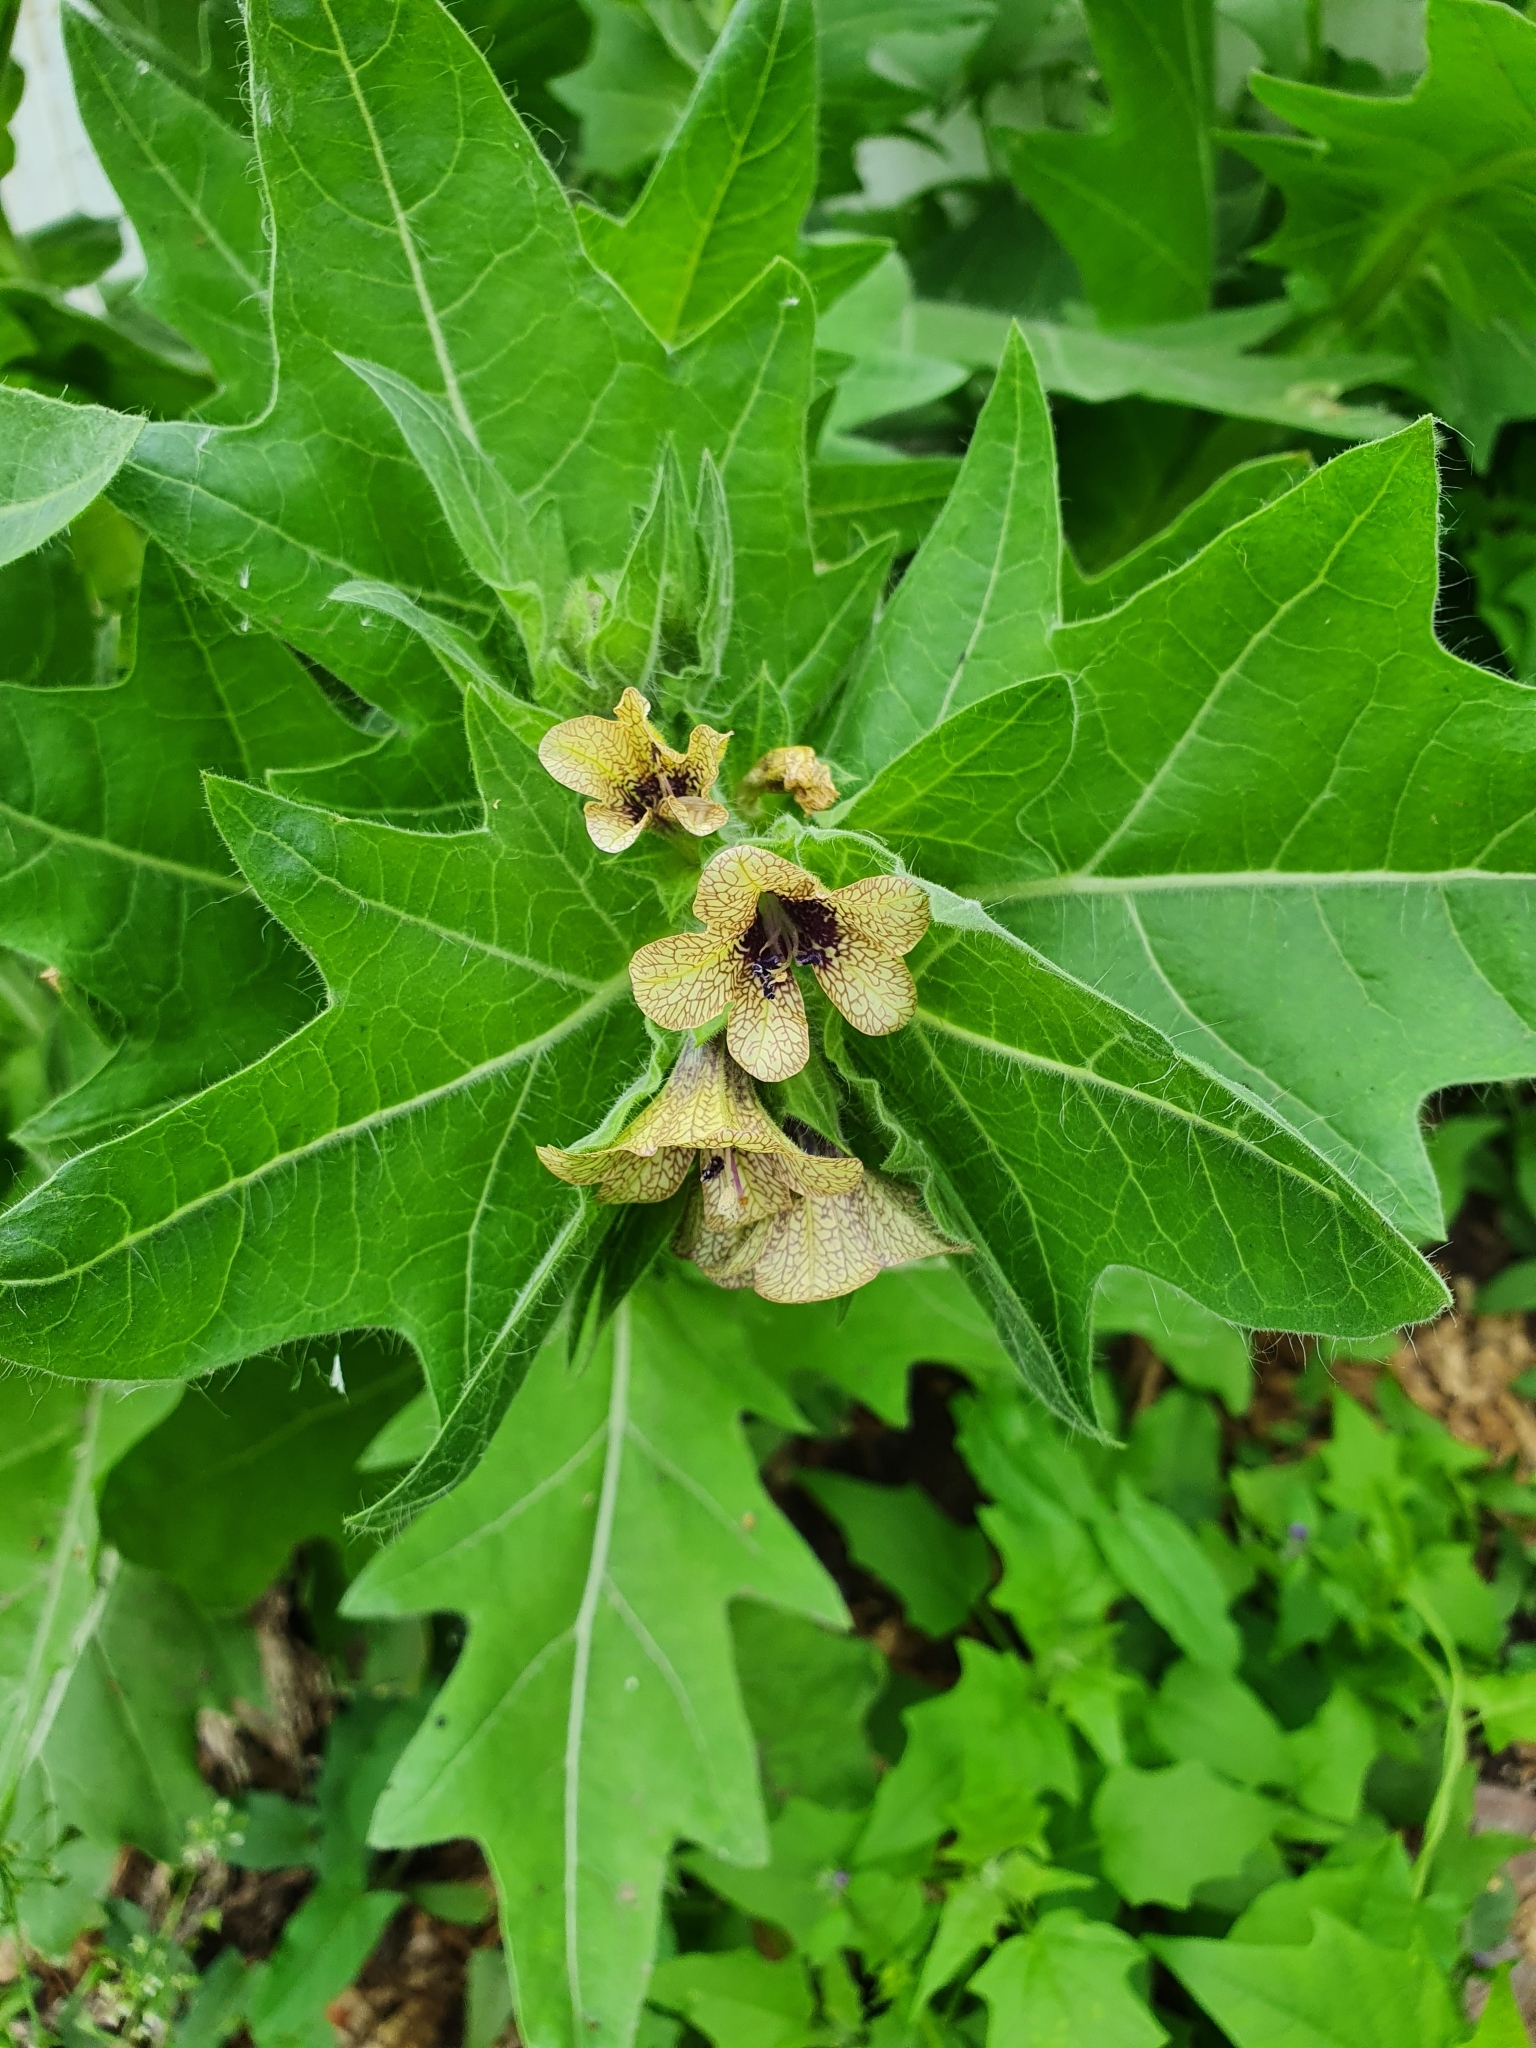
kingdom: Plantae
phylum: Tracheophyta
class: Magnoliopsida
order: Solanales
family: Solanaceae
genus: Hyoscyamus
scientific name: Hyoscyamus niger
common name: Henbane
